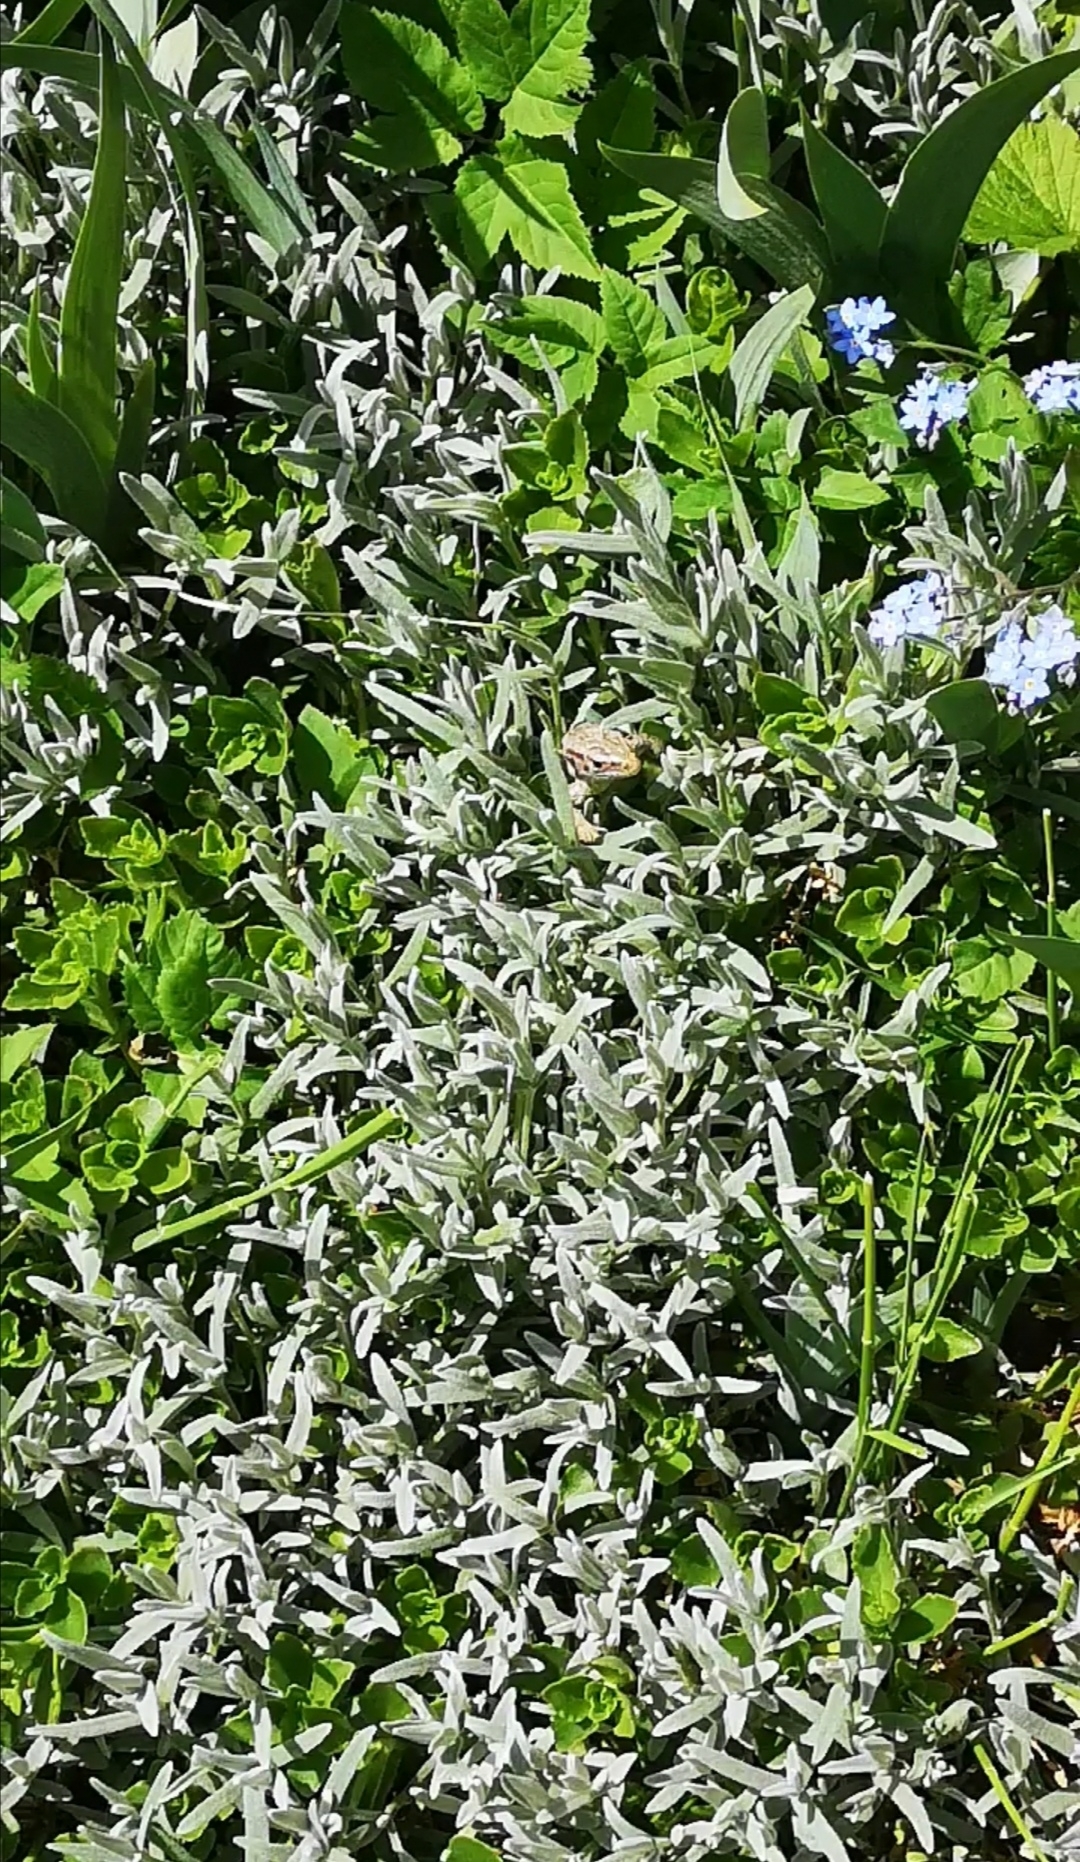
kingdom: Animalia
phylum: Chordata
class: Squamata
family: Lacertidae
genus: Lacerta
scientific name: Lacerta agilis
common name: Sand lizard
